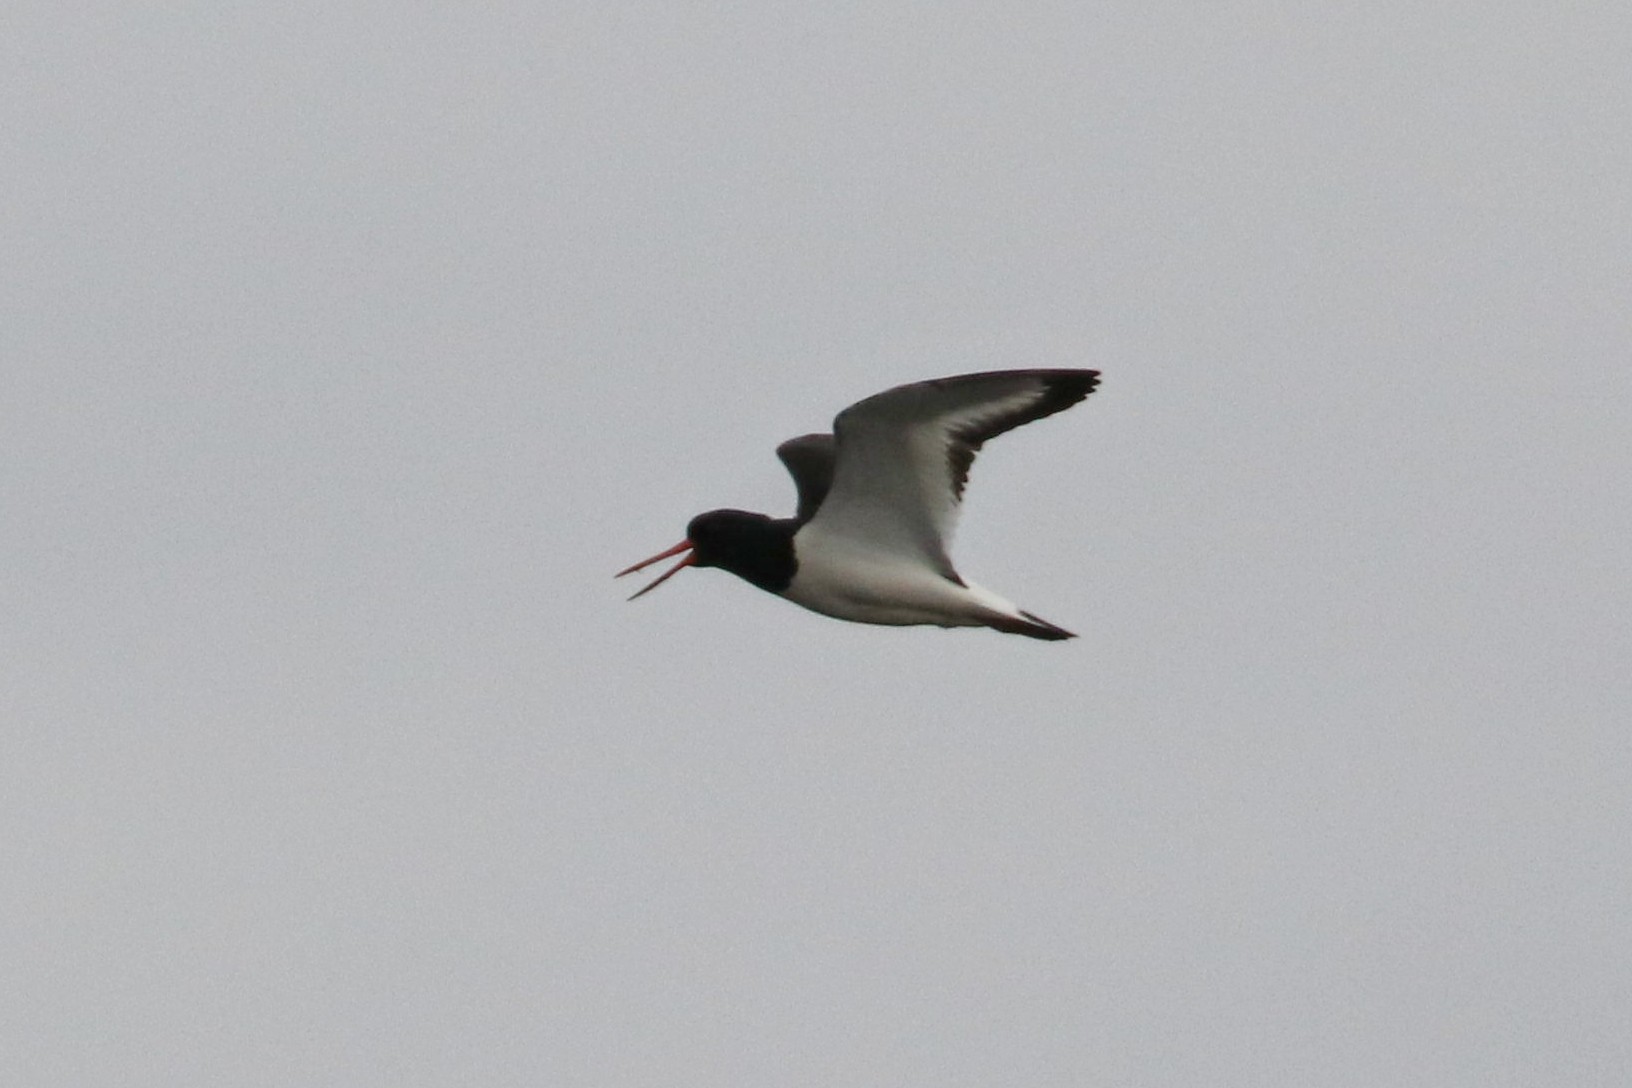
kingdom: Animalia
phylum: Chordata
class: Aves
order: Charadriiformes
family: Haematopodidae
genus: Haematopus
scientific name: Haematopus ostralegus
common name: Eurasian oystercatcher
